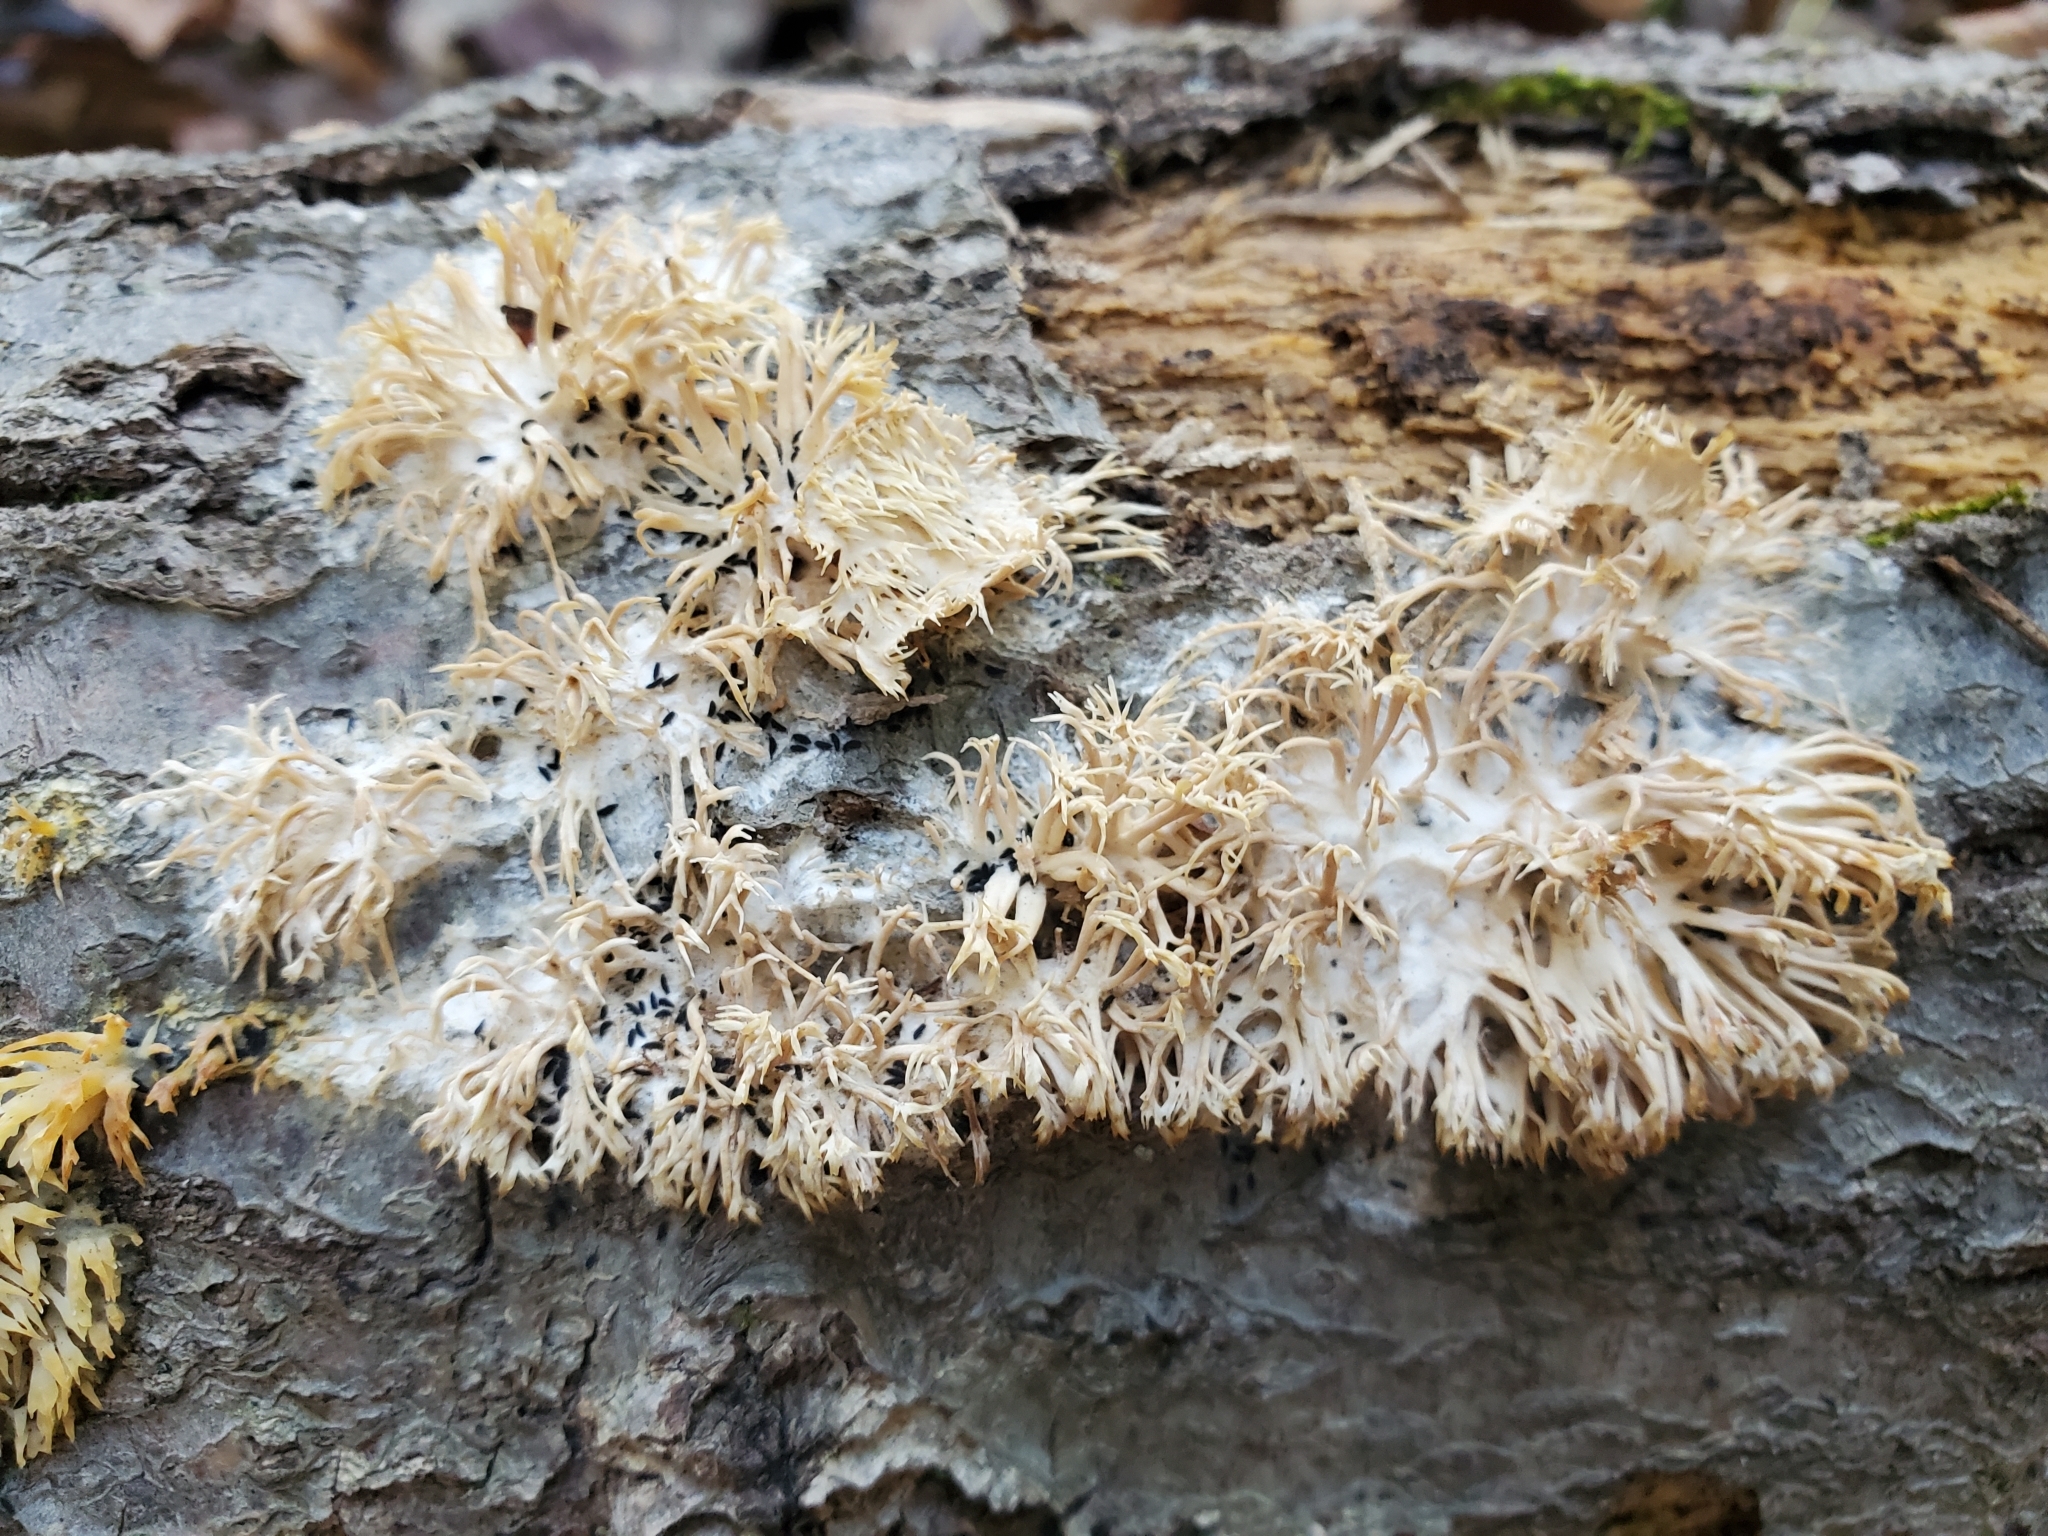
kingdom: Fungi
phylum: Basidiomycota
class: Agaricomycetes
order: Agaricales
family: Radulomycetaceae
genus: Radulomyces
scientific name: Radulomyces copelandii
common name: Asian beauty
